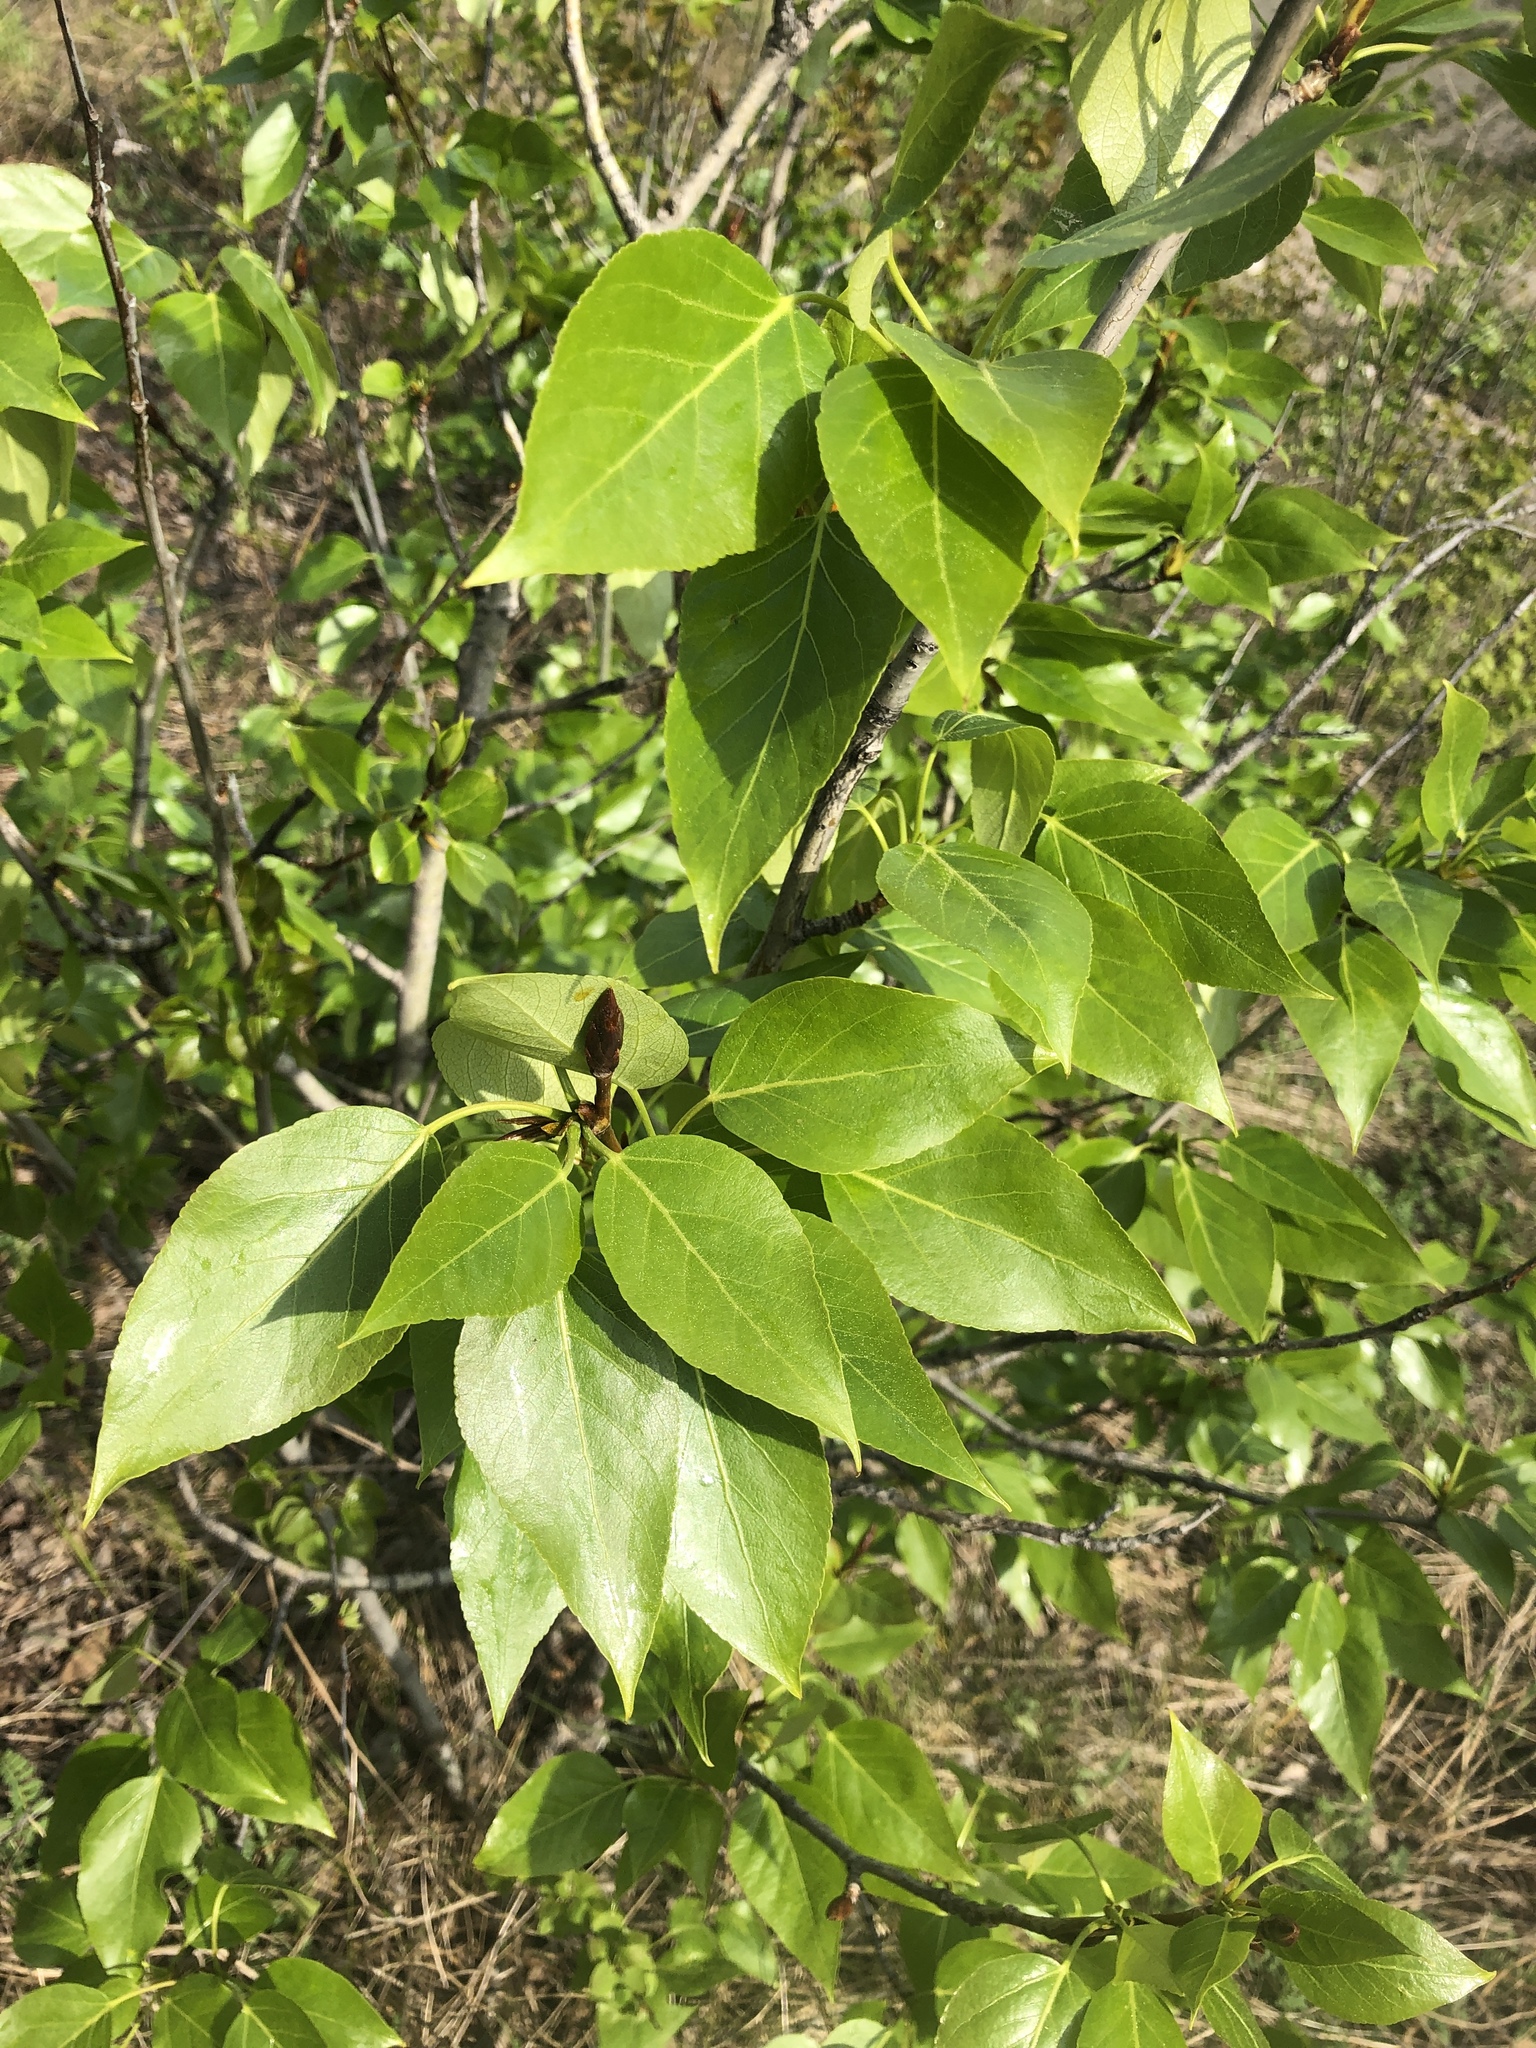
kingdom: Plantae
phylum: Tracheophyta
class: Magnoliopsida
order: Malpighiales
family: Salicaceae
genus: Populus
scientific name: Populus balsamifera
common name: Balsam poplar
